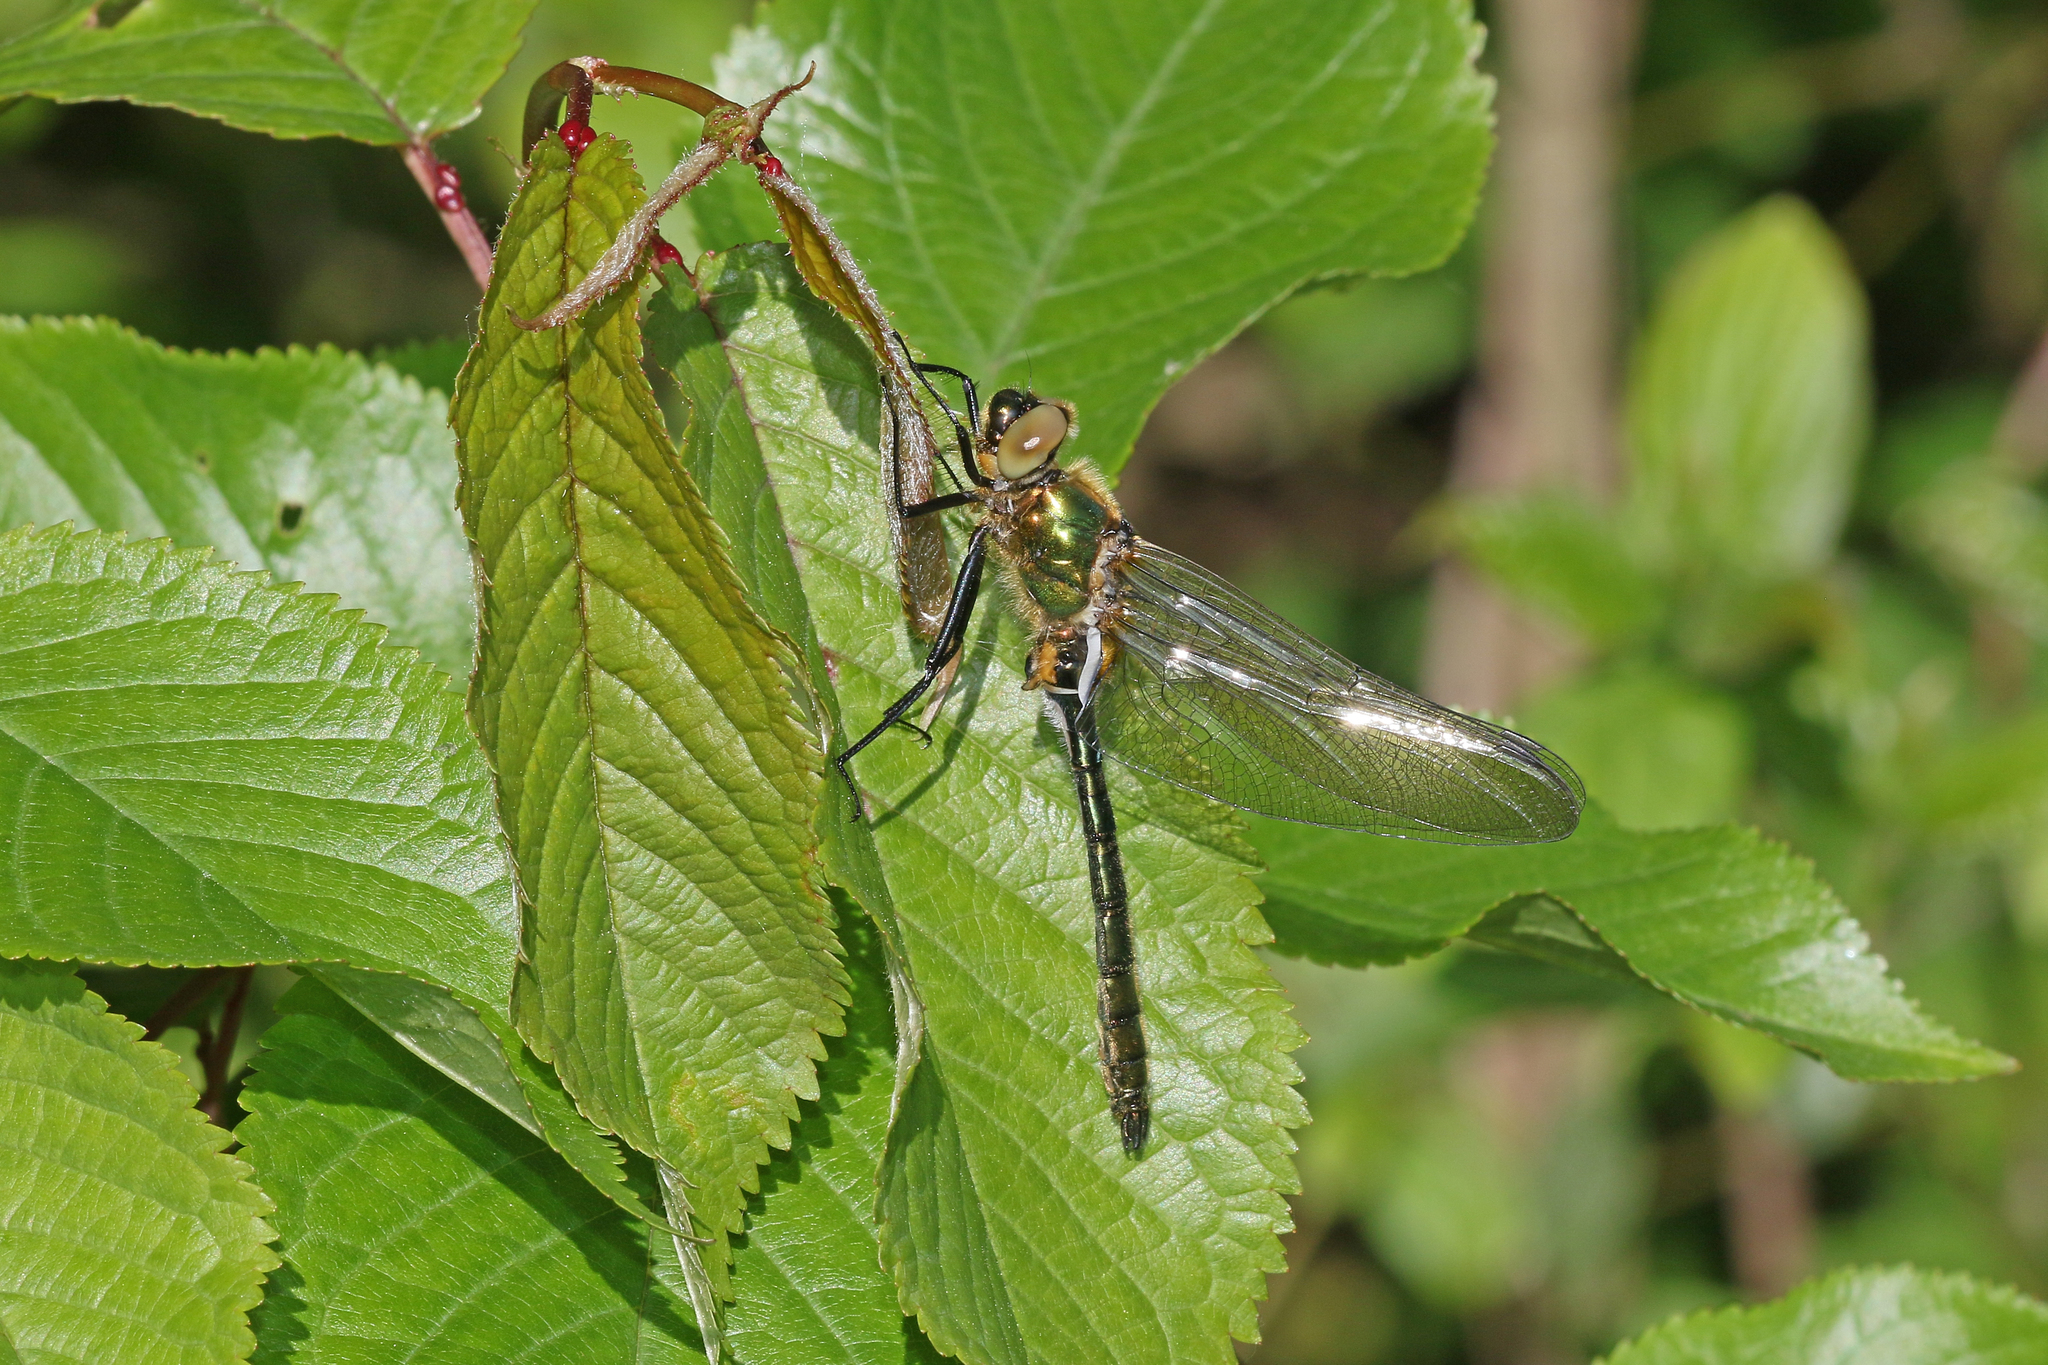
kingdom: Animalia
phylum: Arthropoda
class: Insecta
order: Odonata
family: Corduliidae
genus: Cordulia
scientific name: Cordulia aenea
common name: Downy emerald
